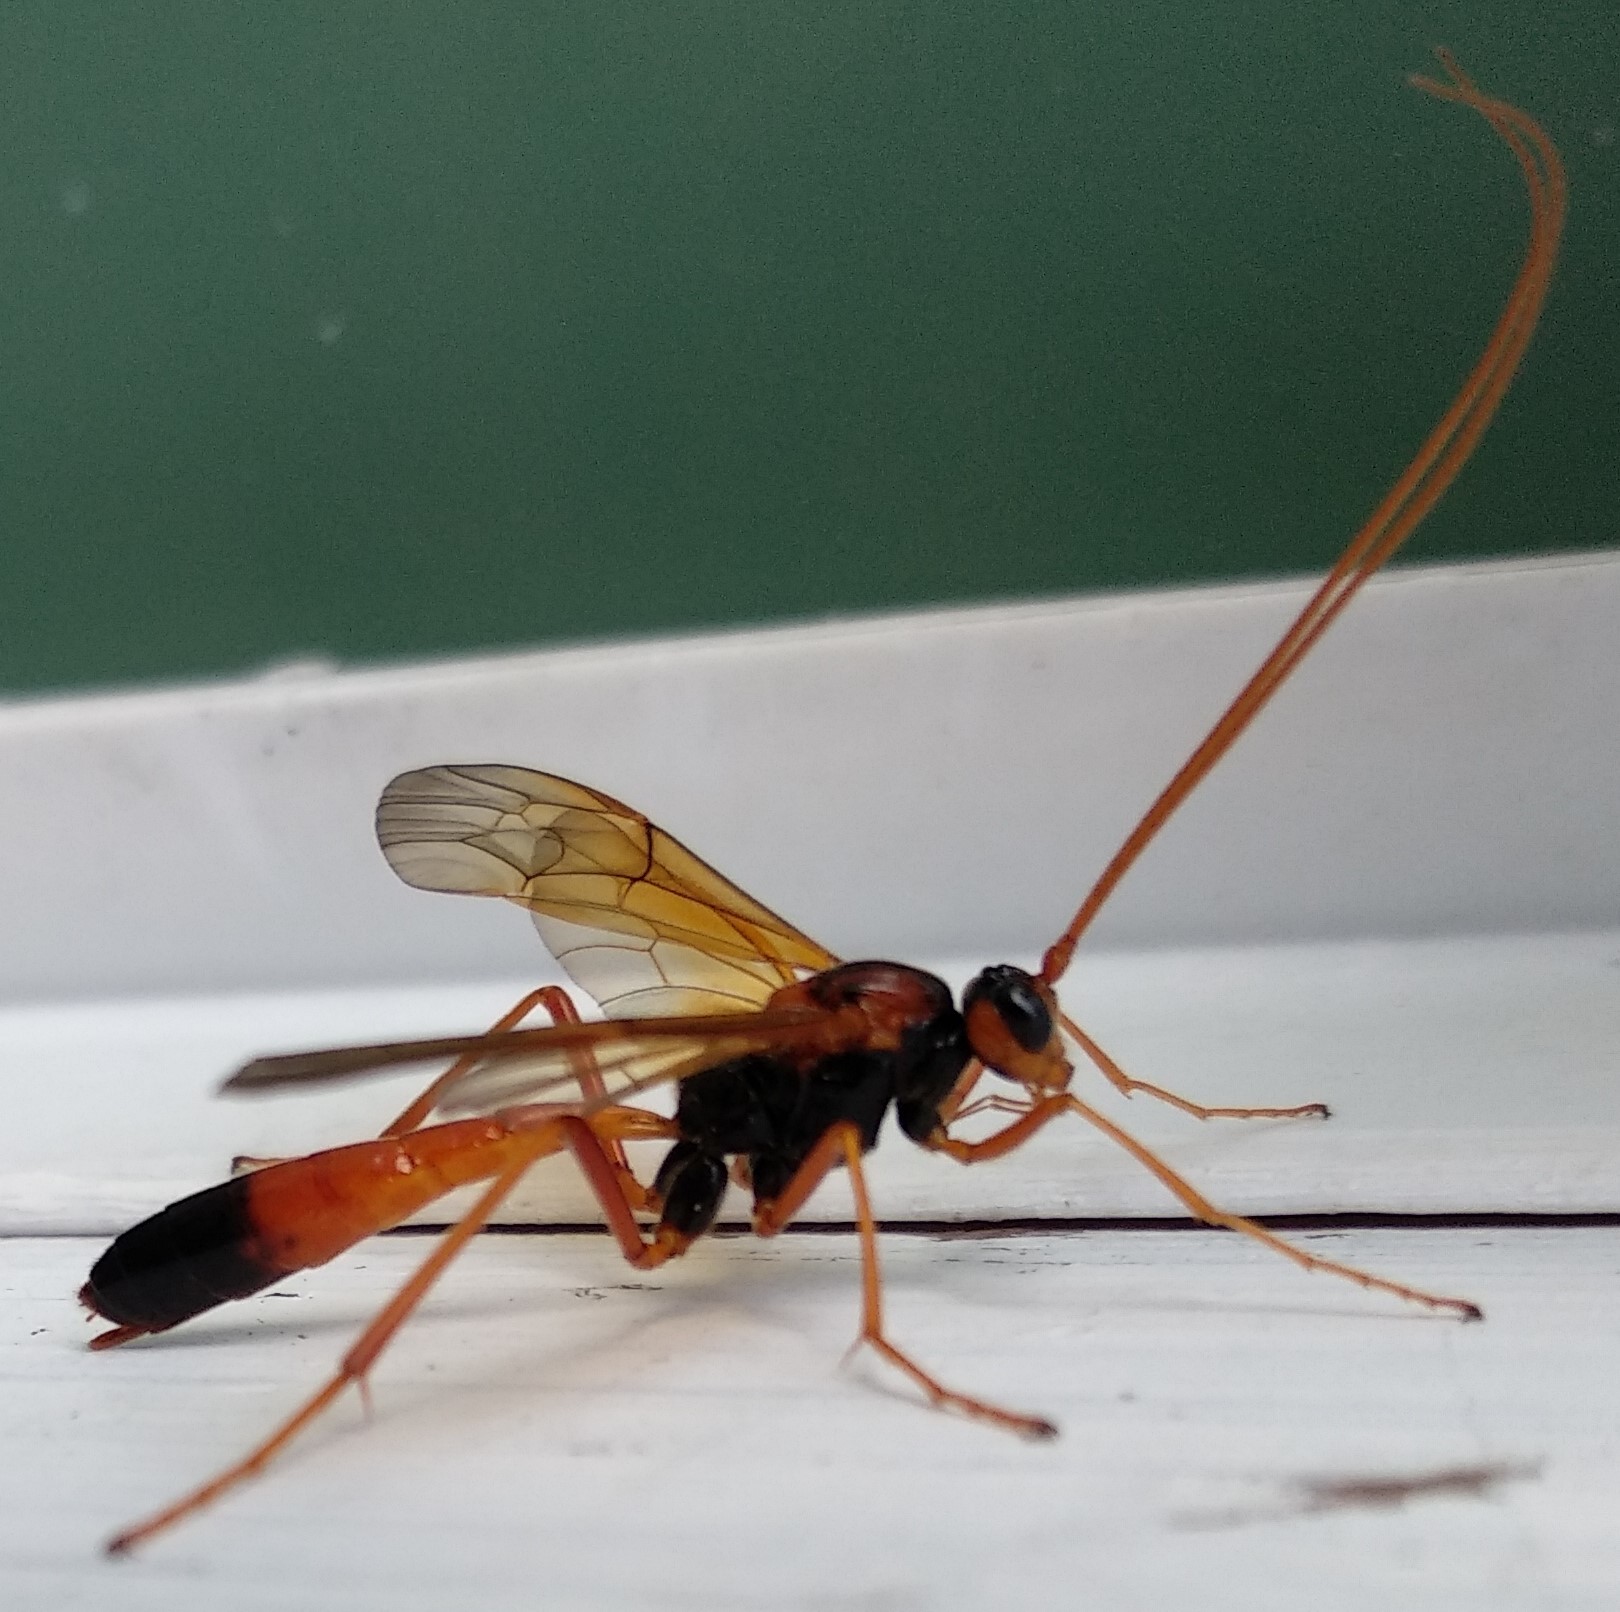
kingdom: Animalia
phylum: Arthropoda
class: Insecta
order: Hymenoptera
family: Ichneumonidae
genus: Opheltes
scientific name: Opheltes glaucopterus
